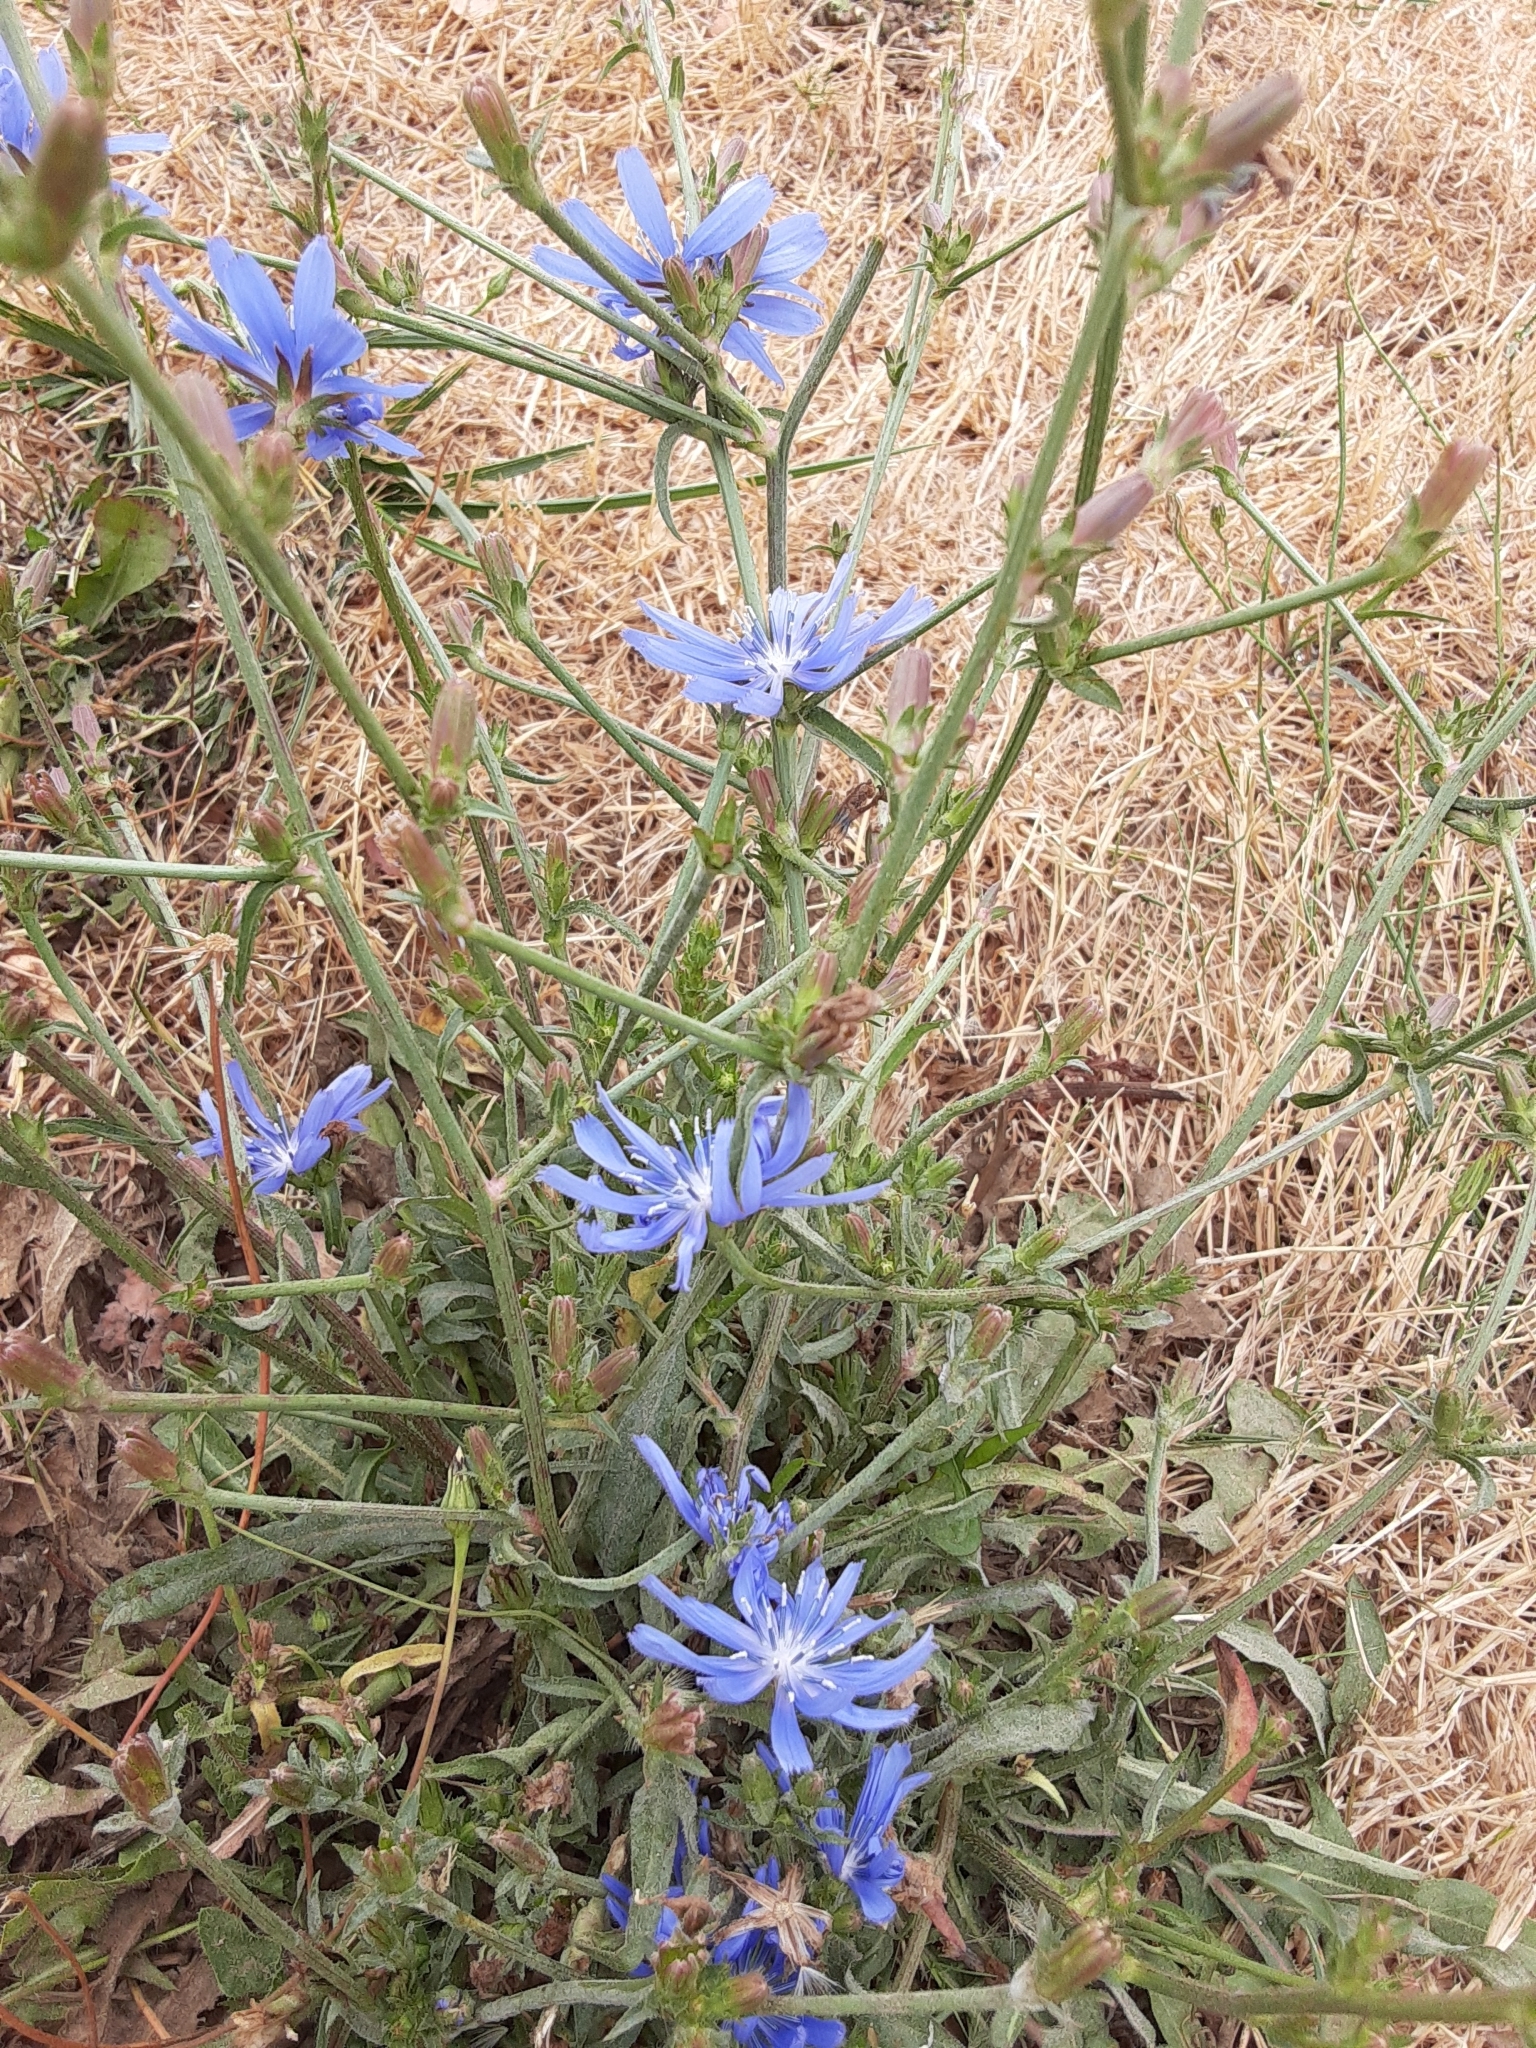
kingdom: Plantae
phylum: Tracheophyta
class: Magnoliopsida
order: Asterales
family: Asteraceae
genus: Cichorium
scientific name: Cichorium intybus
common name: Chicory
